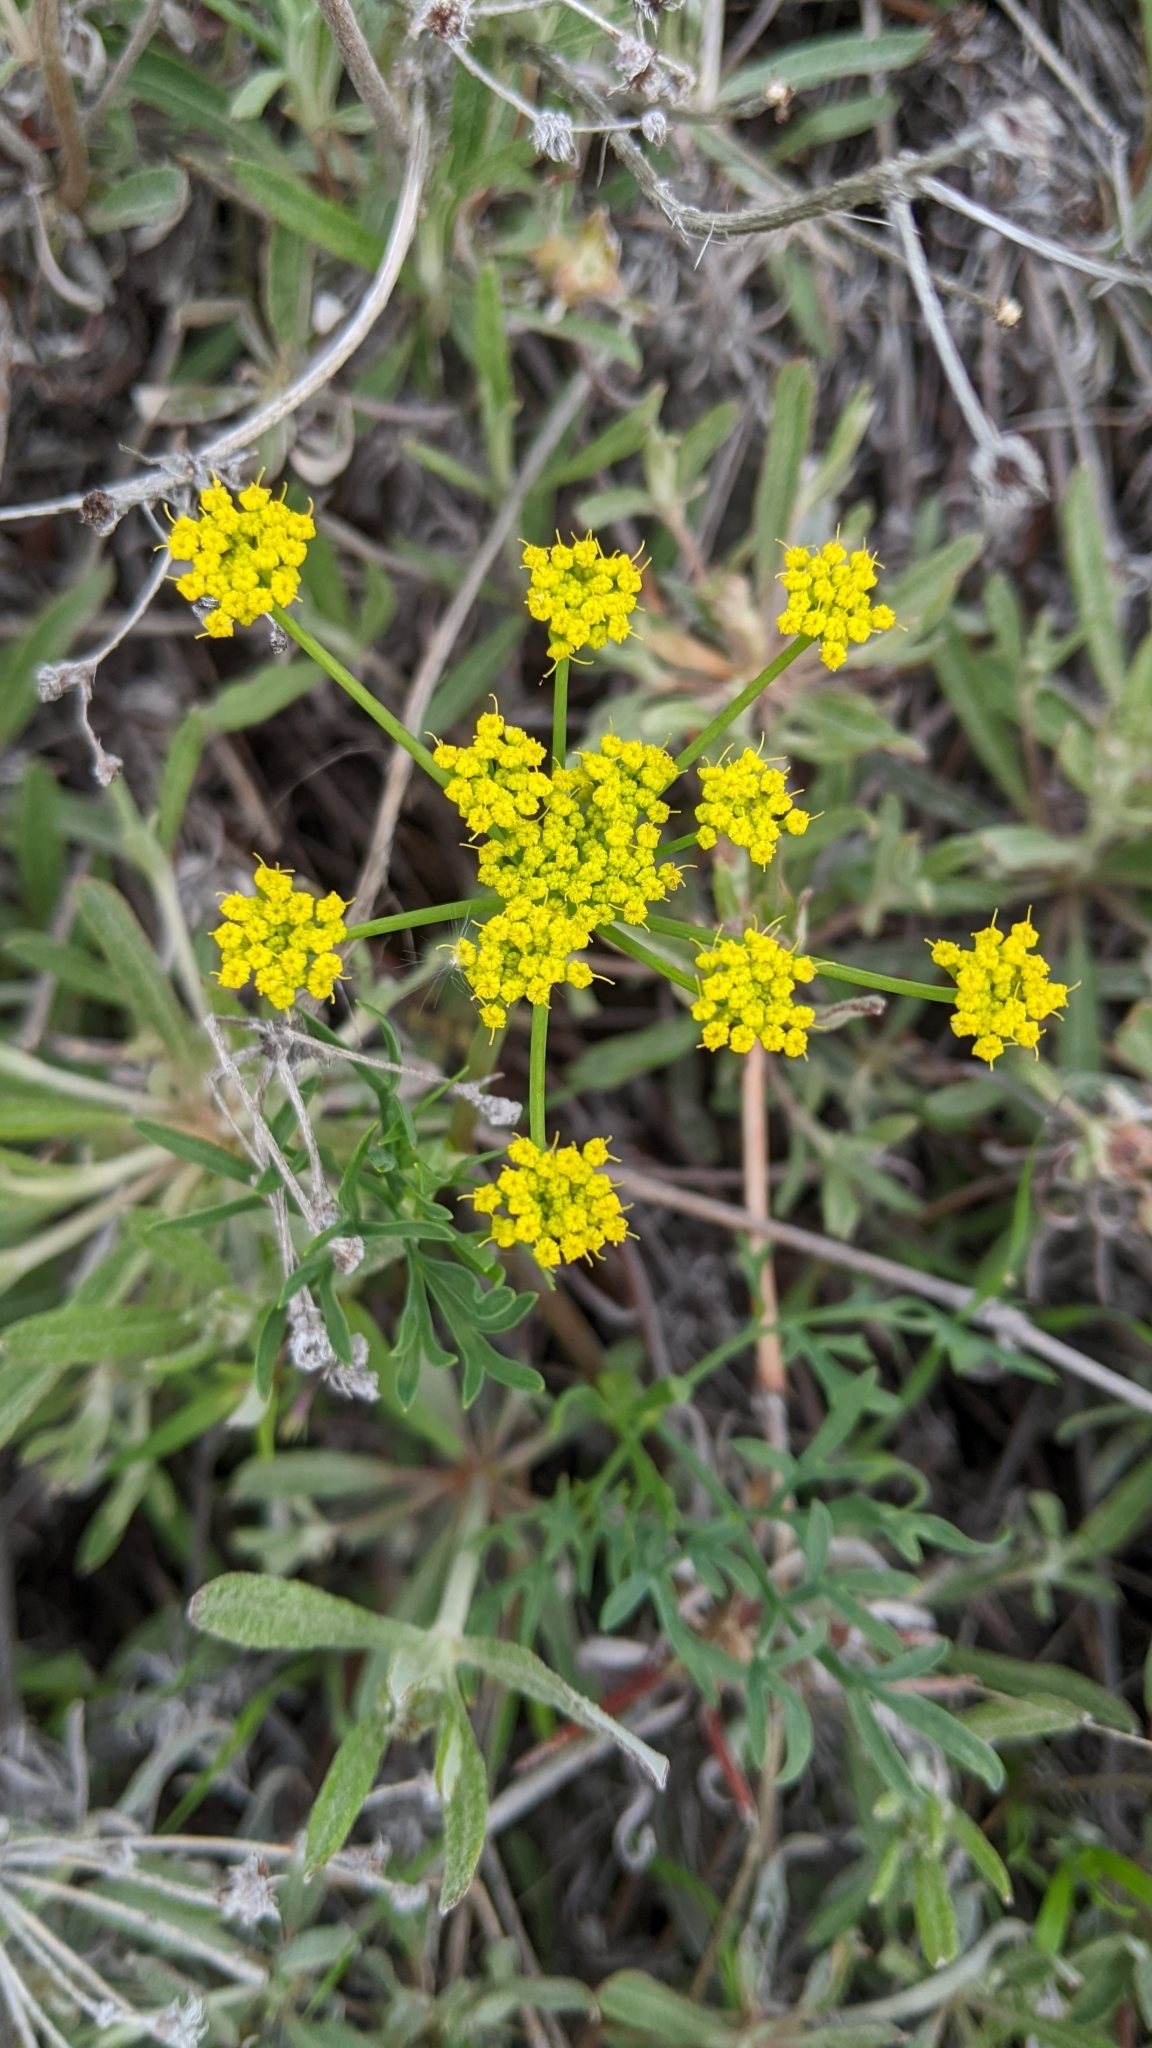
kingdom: Plantae
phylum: Tracheophyta
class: Magnoliopsida
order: Apiales
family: Apiaceae
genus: Lomatium
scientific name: Lomatium ambiguum
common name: Lacy lomatium
